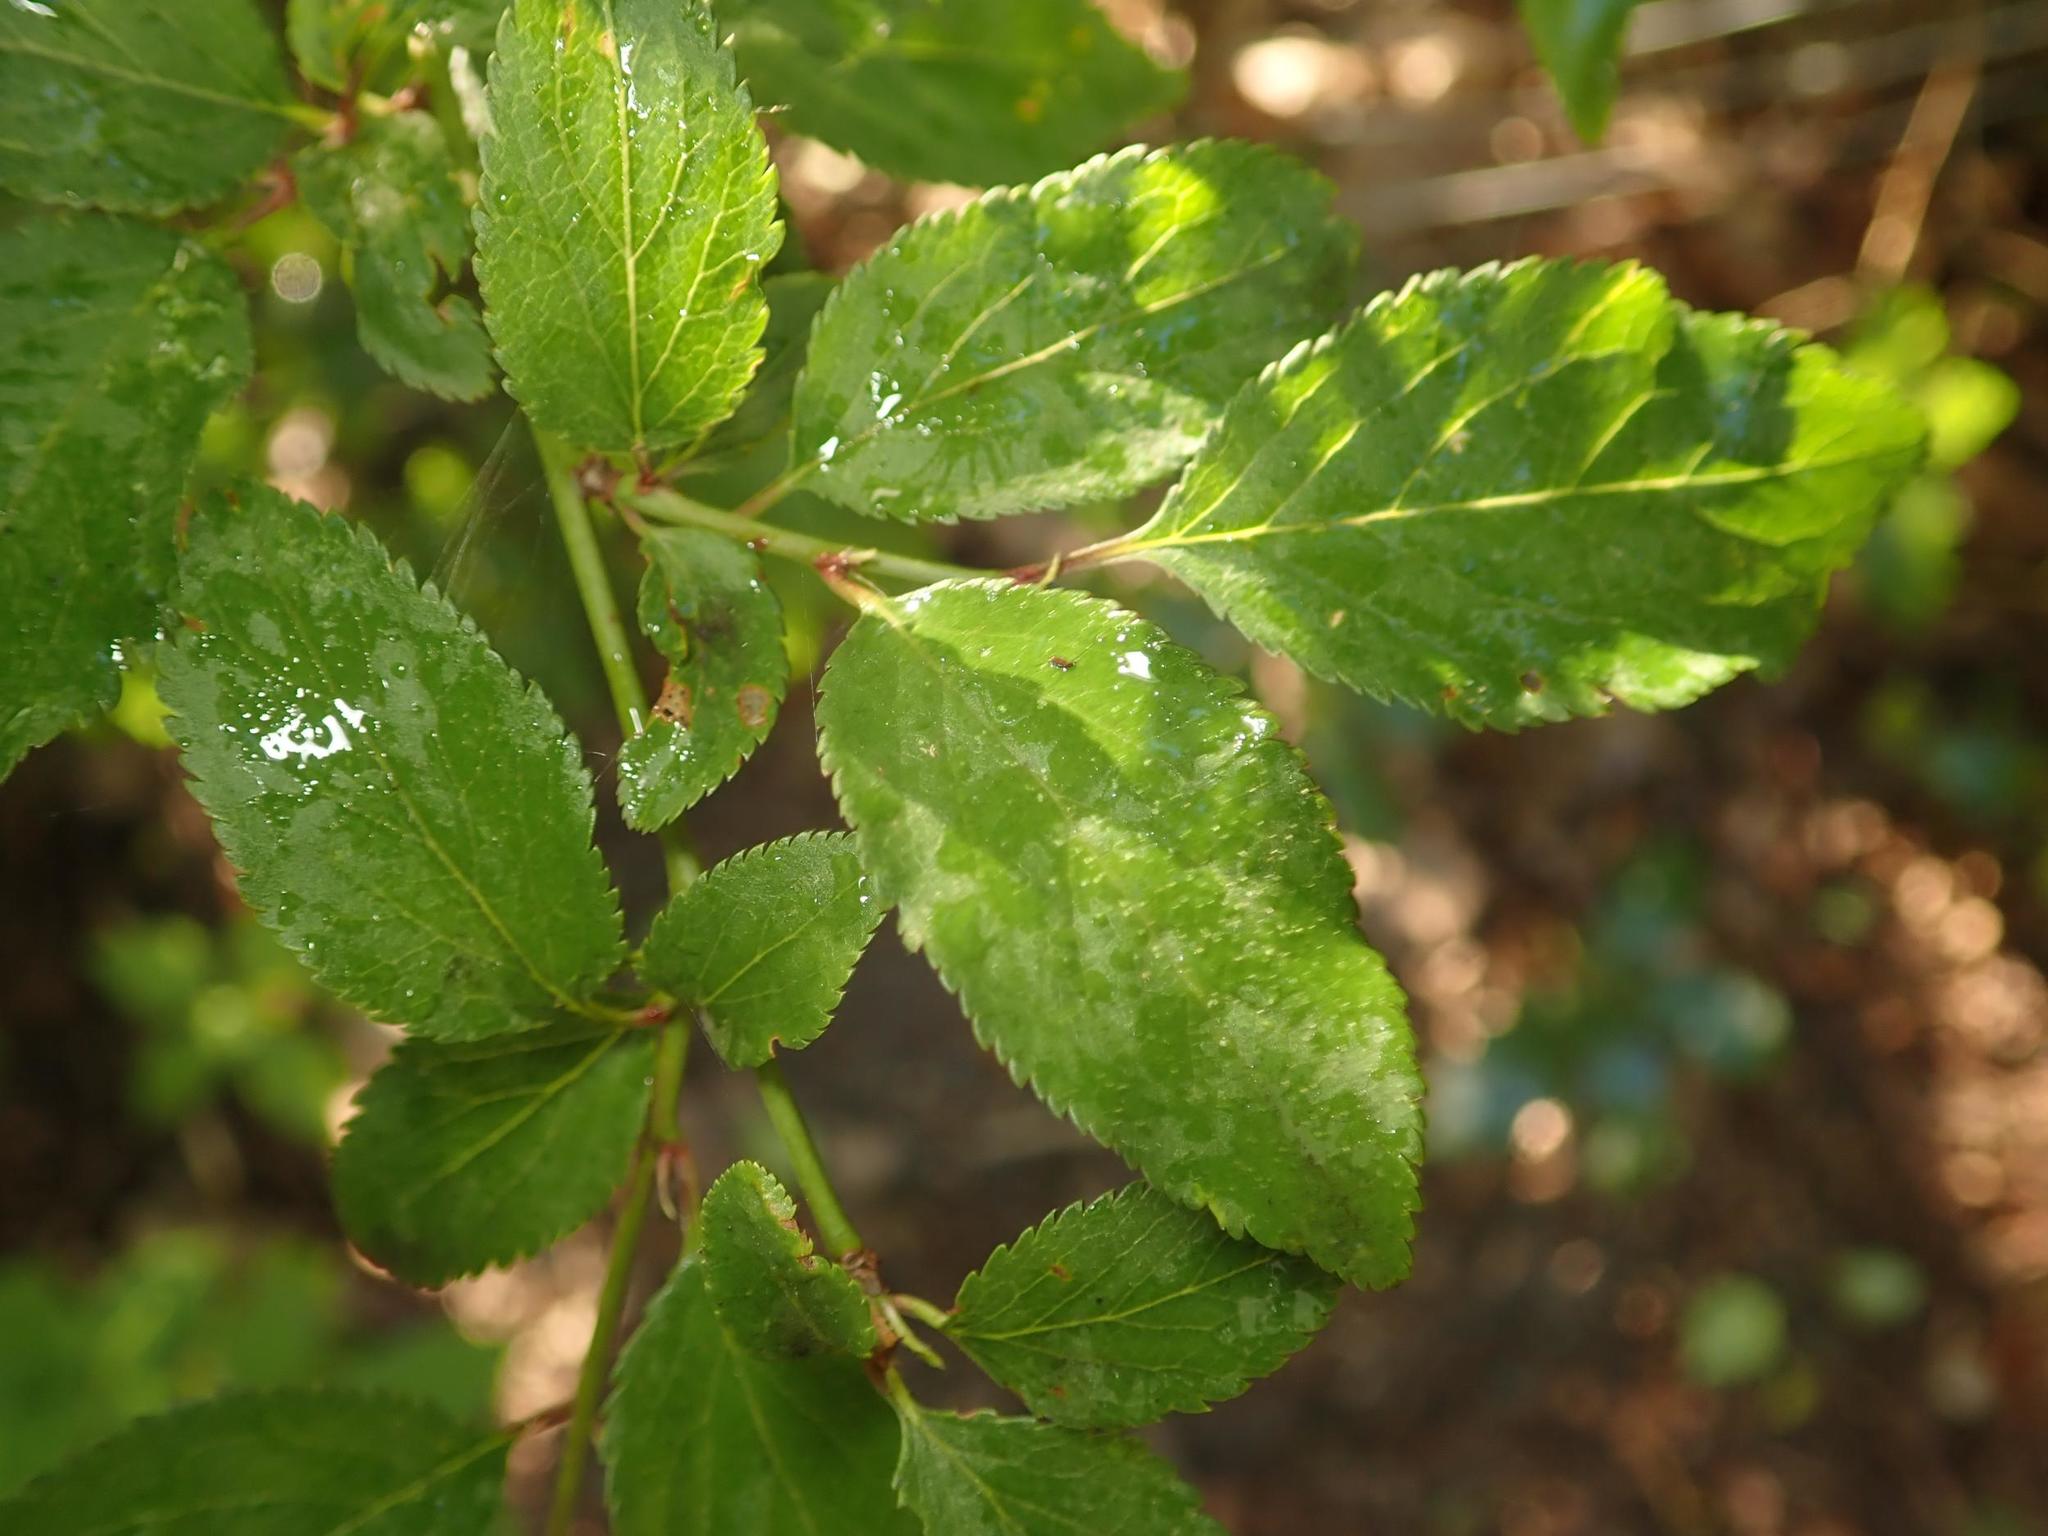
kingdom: Plantae
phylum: Tracheophyta
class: Magnoliopsida
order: Rosales
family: Rosaceae
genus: Prunus
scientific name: Prunus cerasifera
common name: Cherry plum
